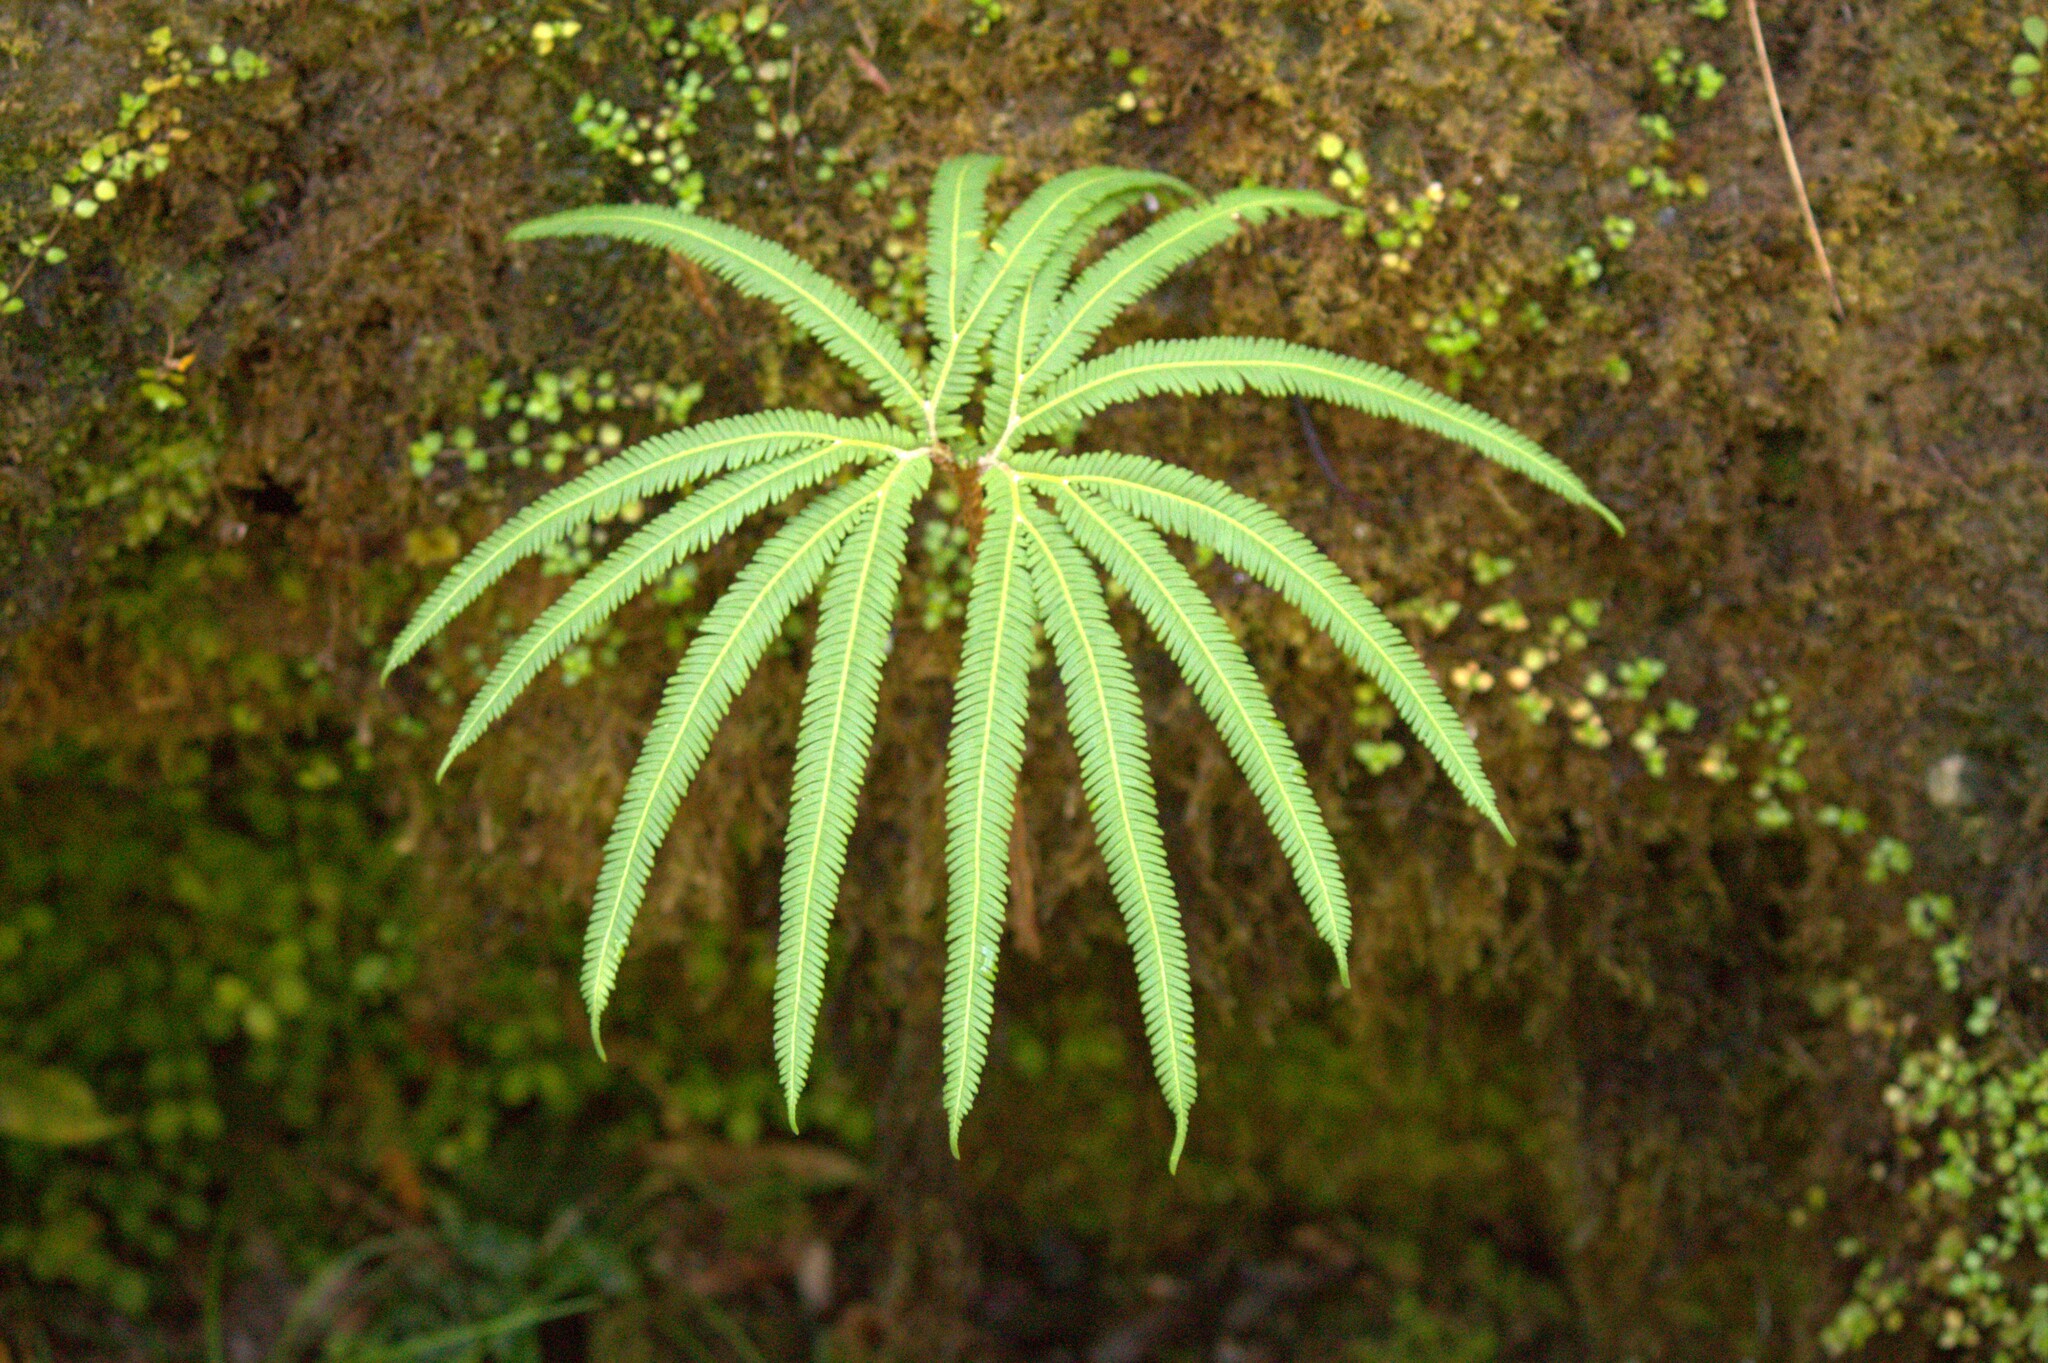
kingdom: Plantae
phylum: Tracheophyta
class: Polypodiopsida
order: Gleicheniales
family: Gleicheniaceae
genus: Sticherus
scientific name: Sticherus cunninghamii
